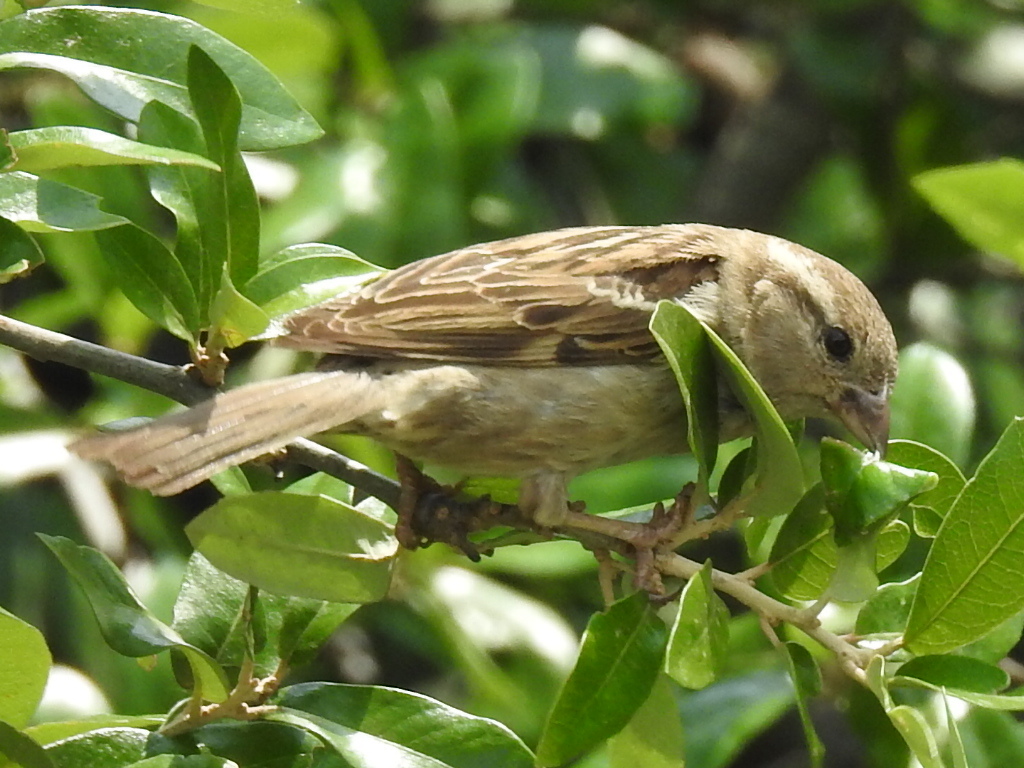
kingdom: Animalia
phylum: Chordata
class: Aves
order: Passeriformes
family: Passeridae
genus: Passer
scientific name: Passer domesticus
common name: House sparrow
